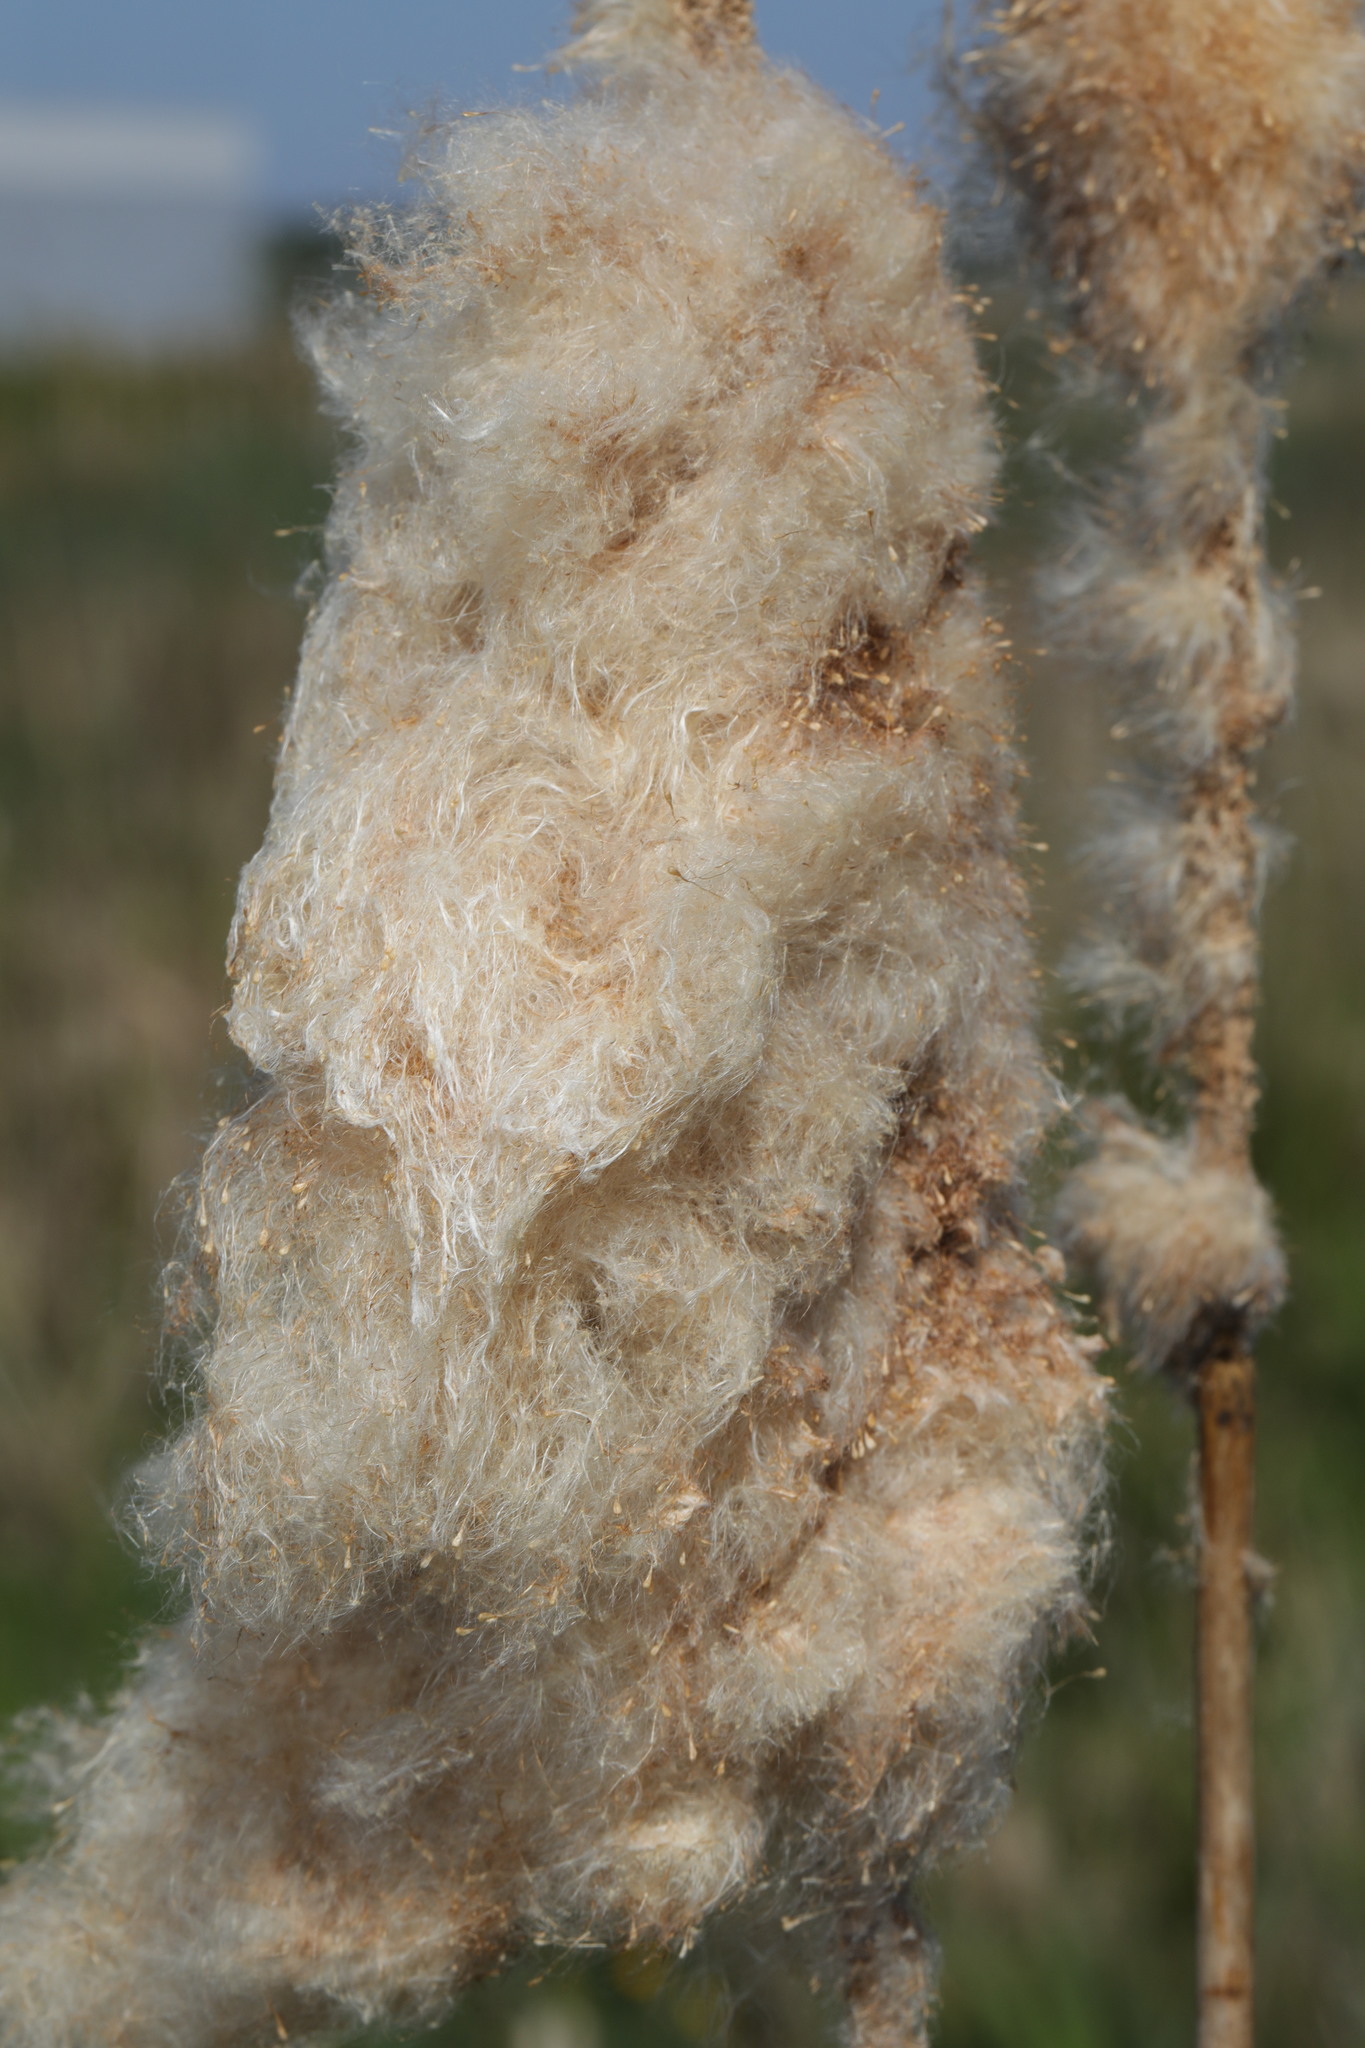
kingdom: Plantae
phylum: Tracheophyta
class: Liliopsida
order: Poales
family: Typhaceae
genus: Typha
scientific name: Typha latifolia
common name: Broadleaf cattail
